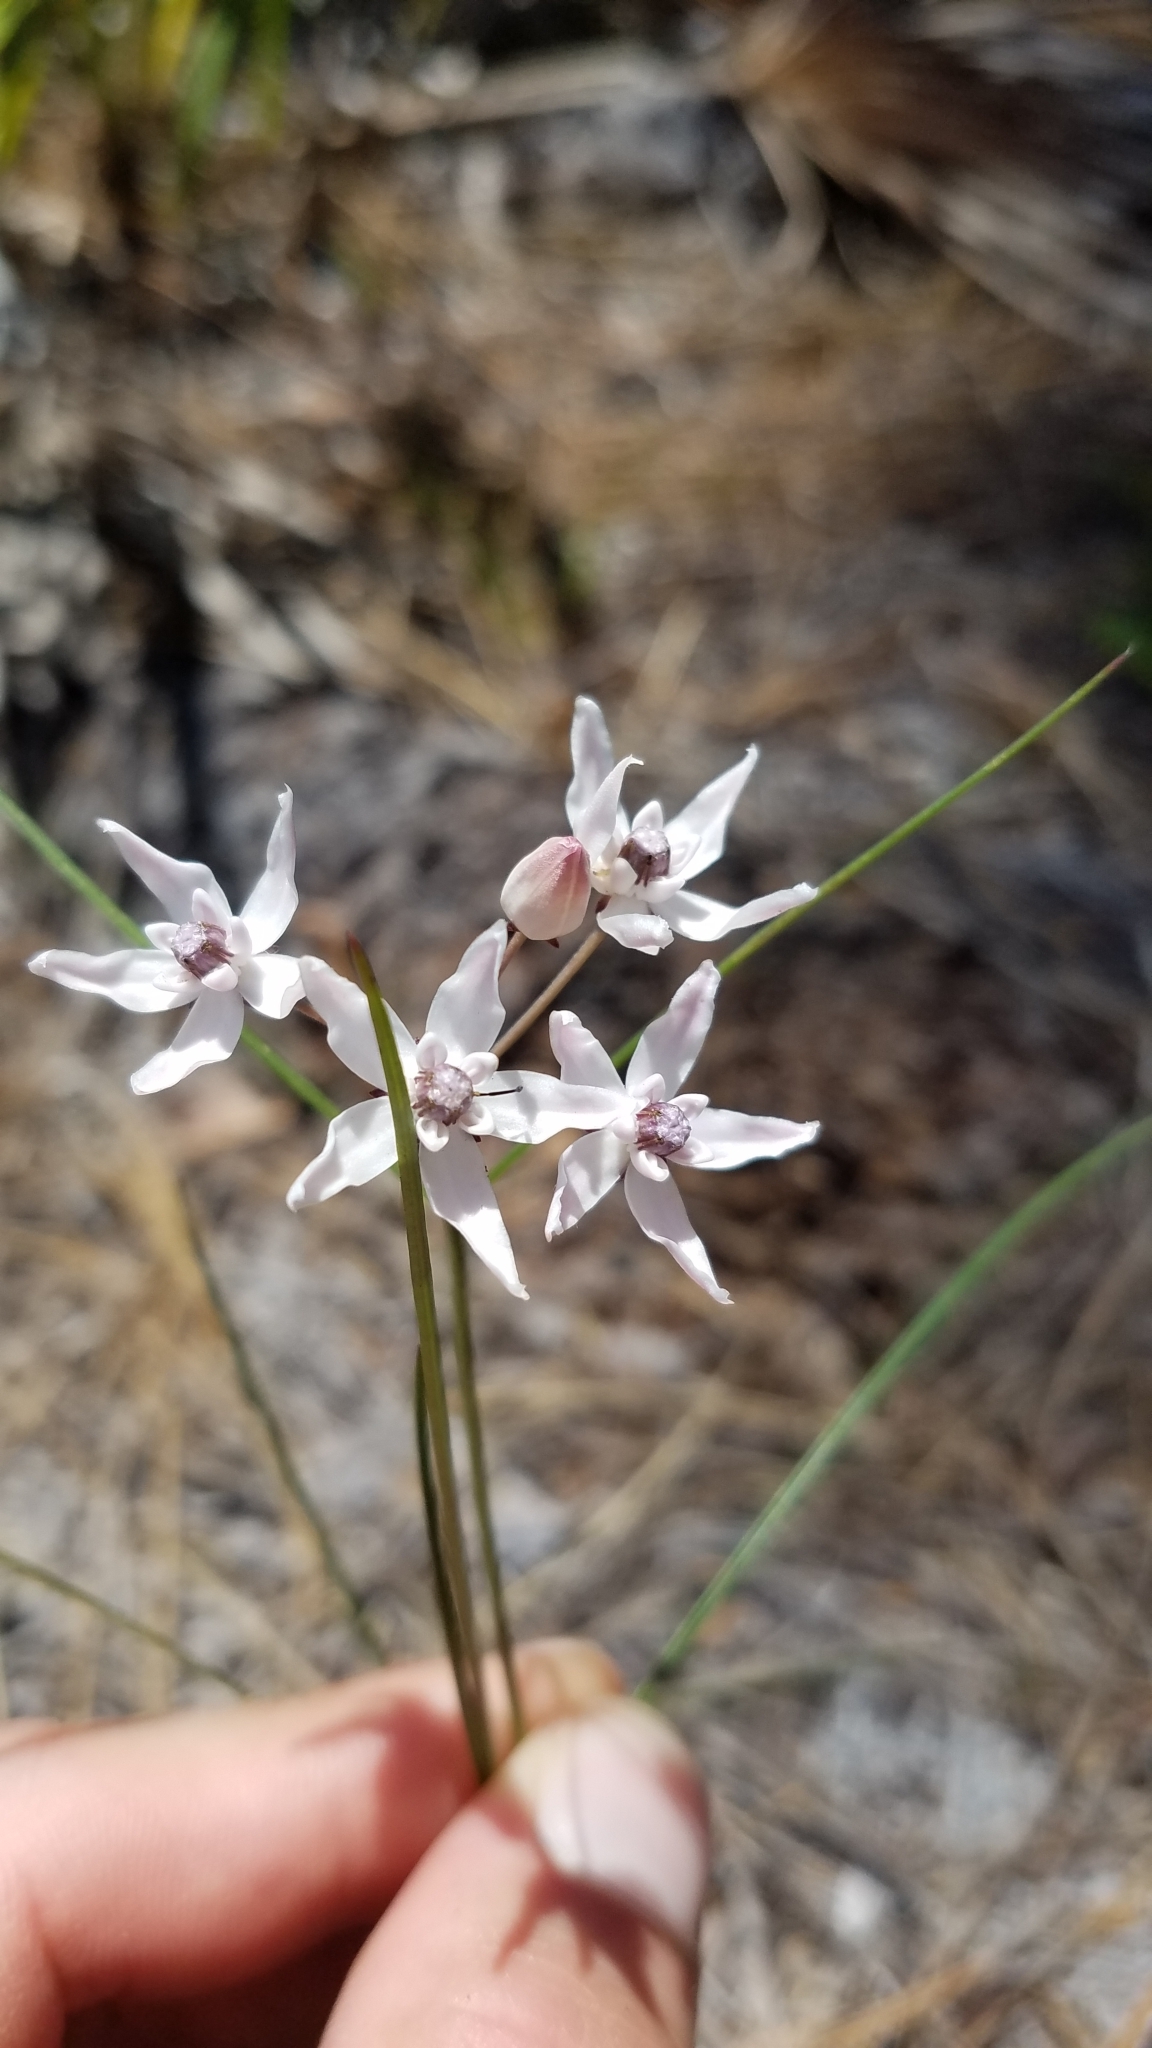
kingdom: Plantae
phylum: Tracheophyta
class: Magnoliopsida
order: Gentianales
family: Apocynaceae
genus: Asclepias
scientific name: Asclepias feayi
